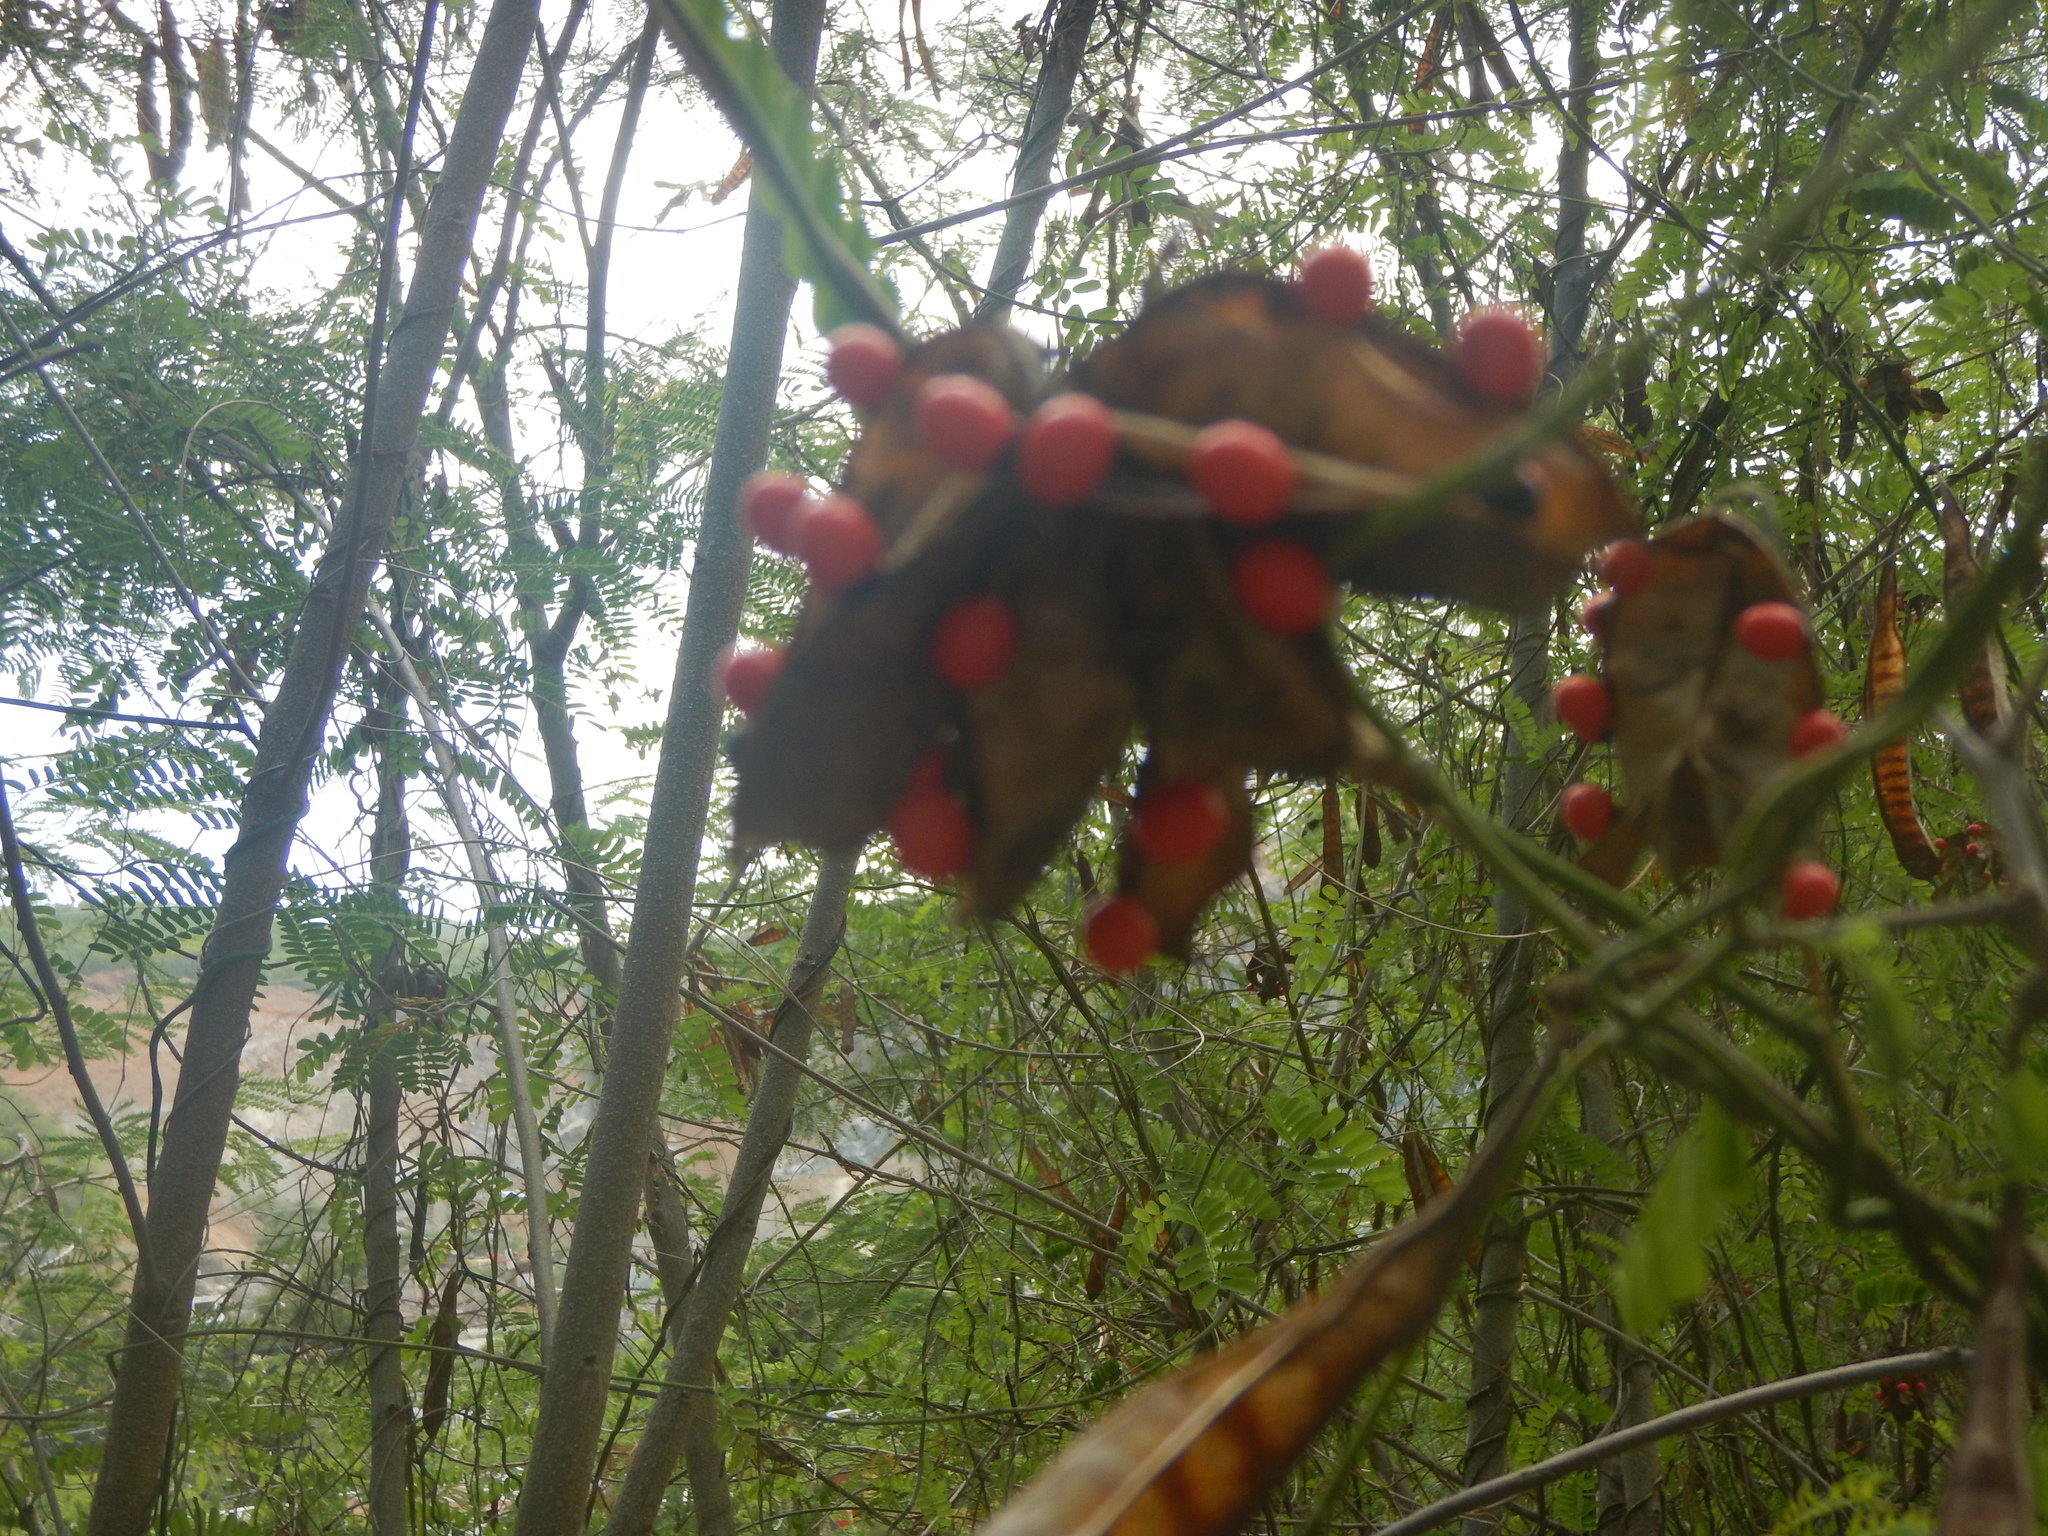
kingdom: Plantae
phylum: Tracheophyta
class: Magnoliopsida
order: Fabales
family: Fabaceae
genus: Abrus
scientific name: Abrus precatorius
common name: Rosarypea
